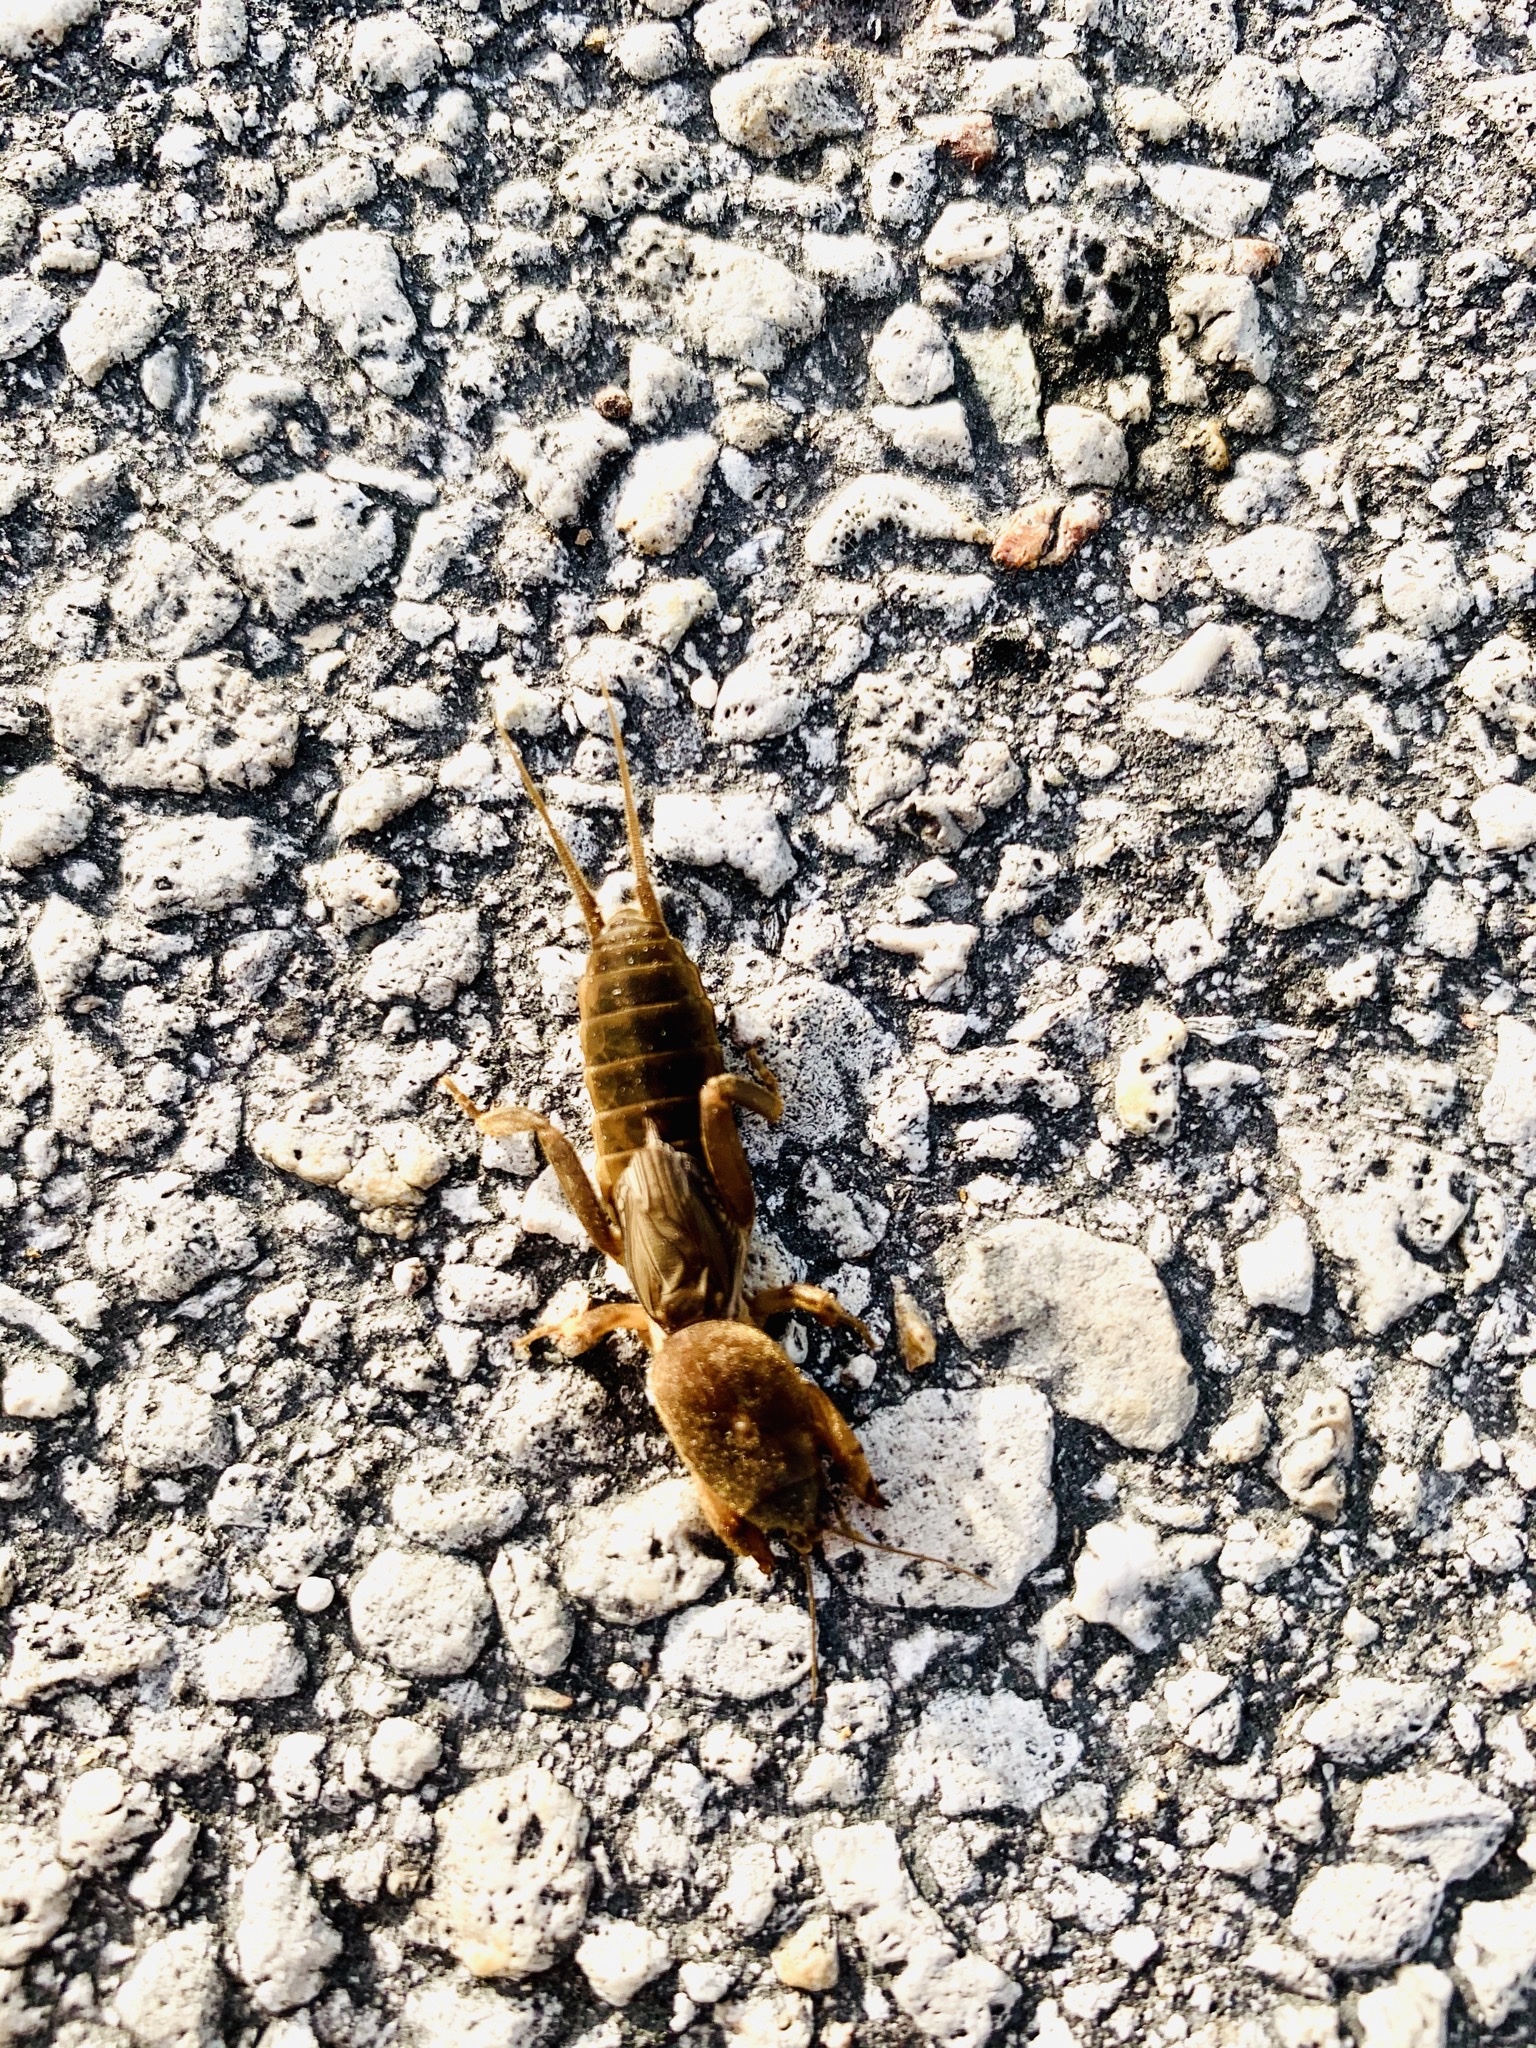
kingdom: Animalia
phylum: Arthropoda
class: Insecta
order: Orthoptera
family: Gryllotalpidae
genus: Neocurtilla
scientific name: Neocurtilla hexadactyla
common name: Northern mole cricket
